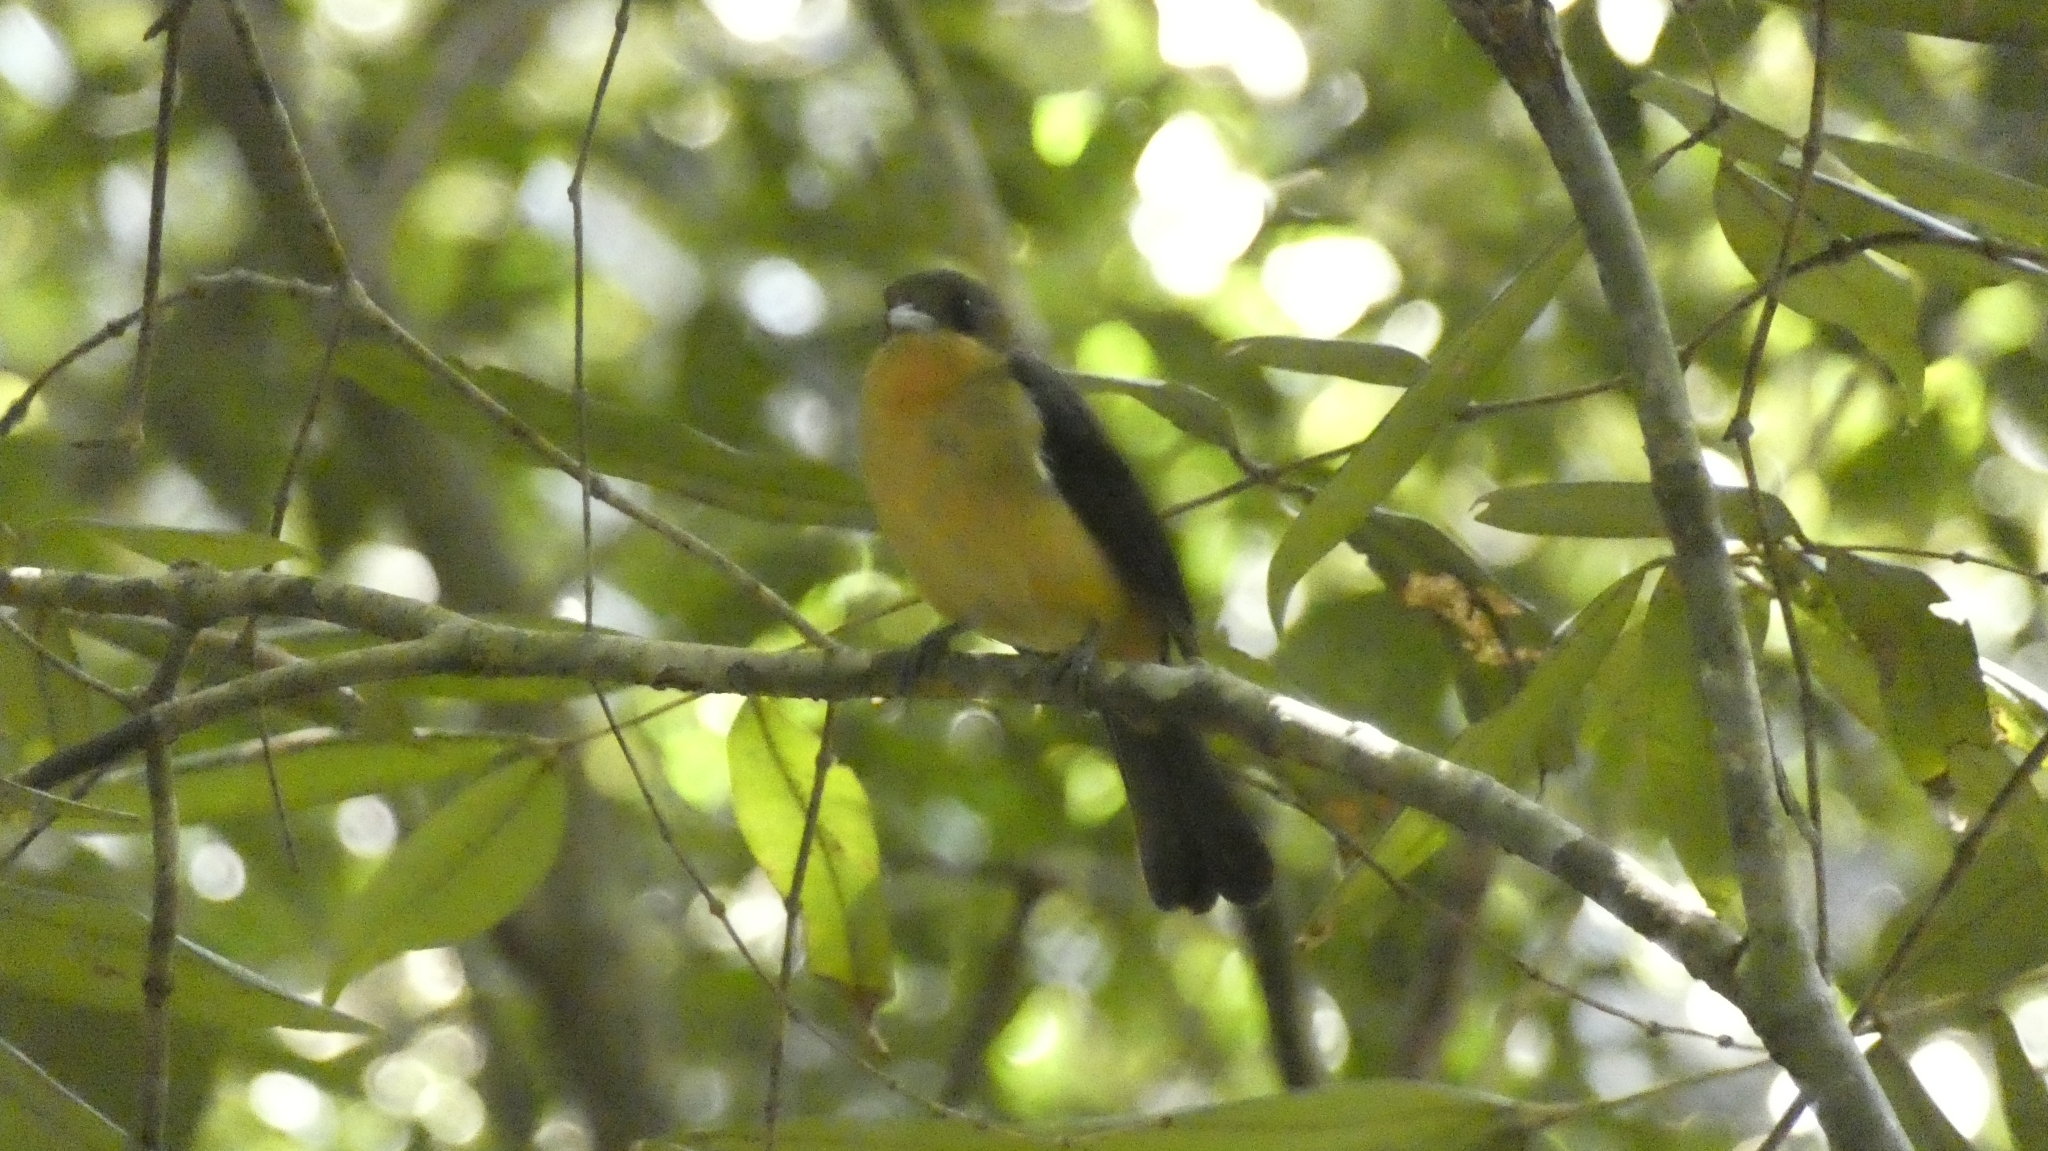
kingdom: Animalia
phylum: Chordata
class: Aves
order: Passeriformes
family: Thraupidae
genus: Trichothraupis
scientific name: Trichothraupis melanops
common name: Black-goggled tanager
